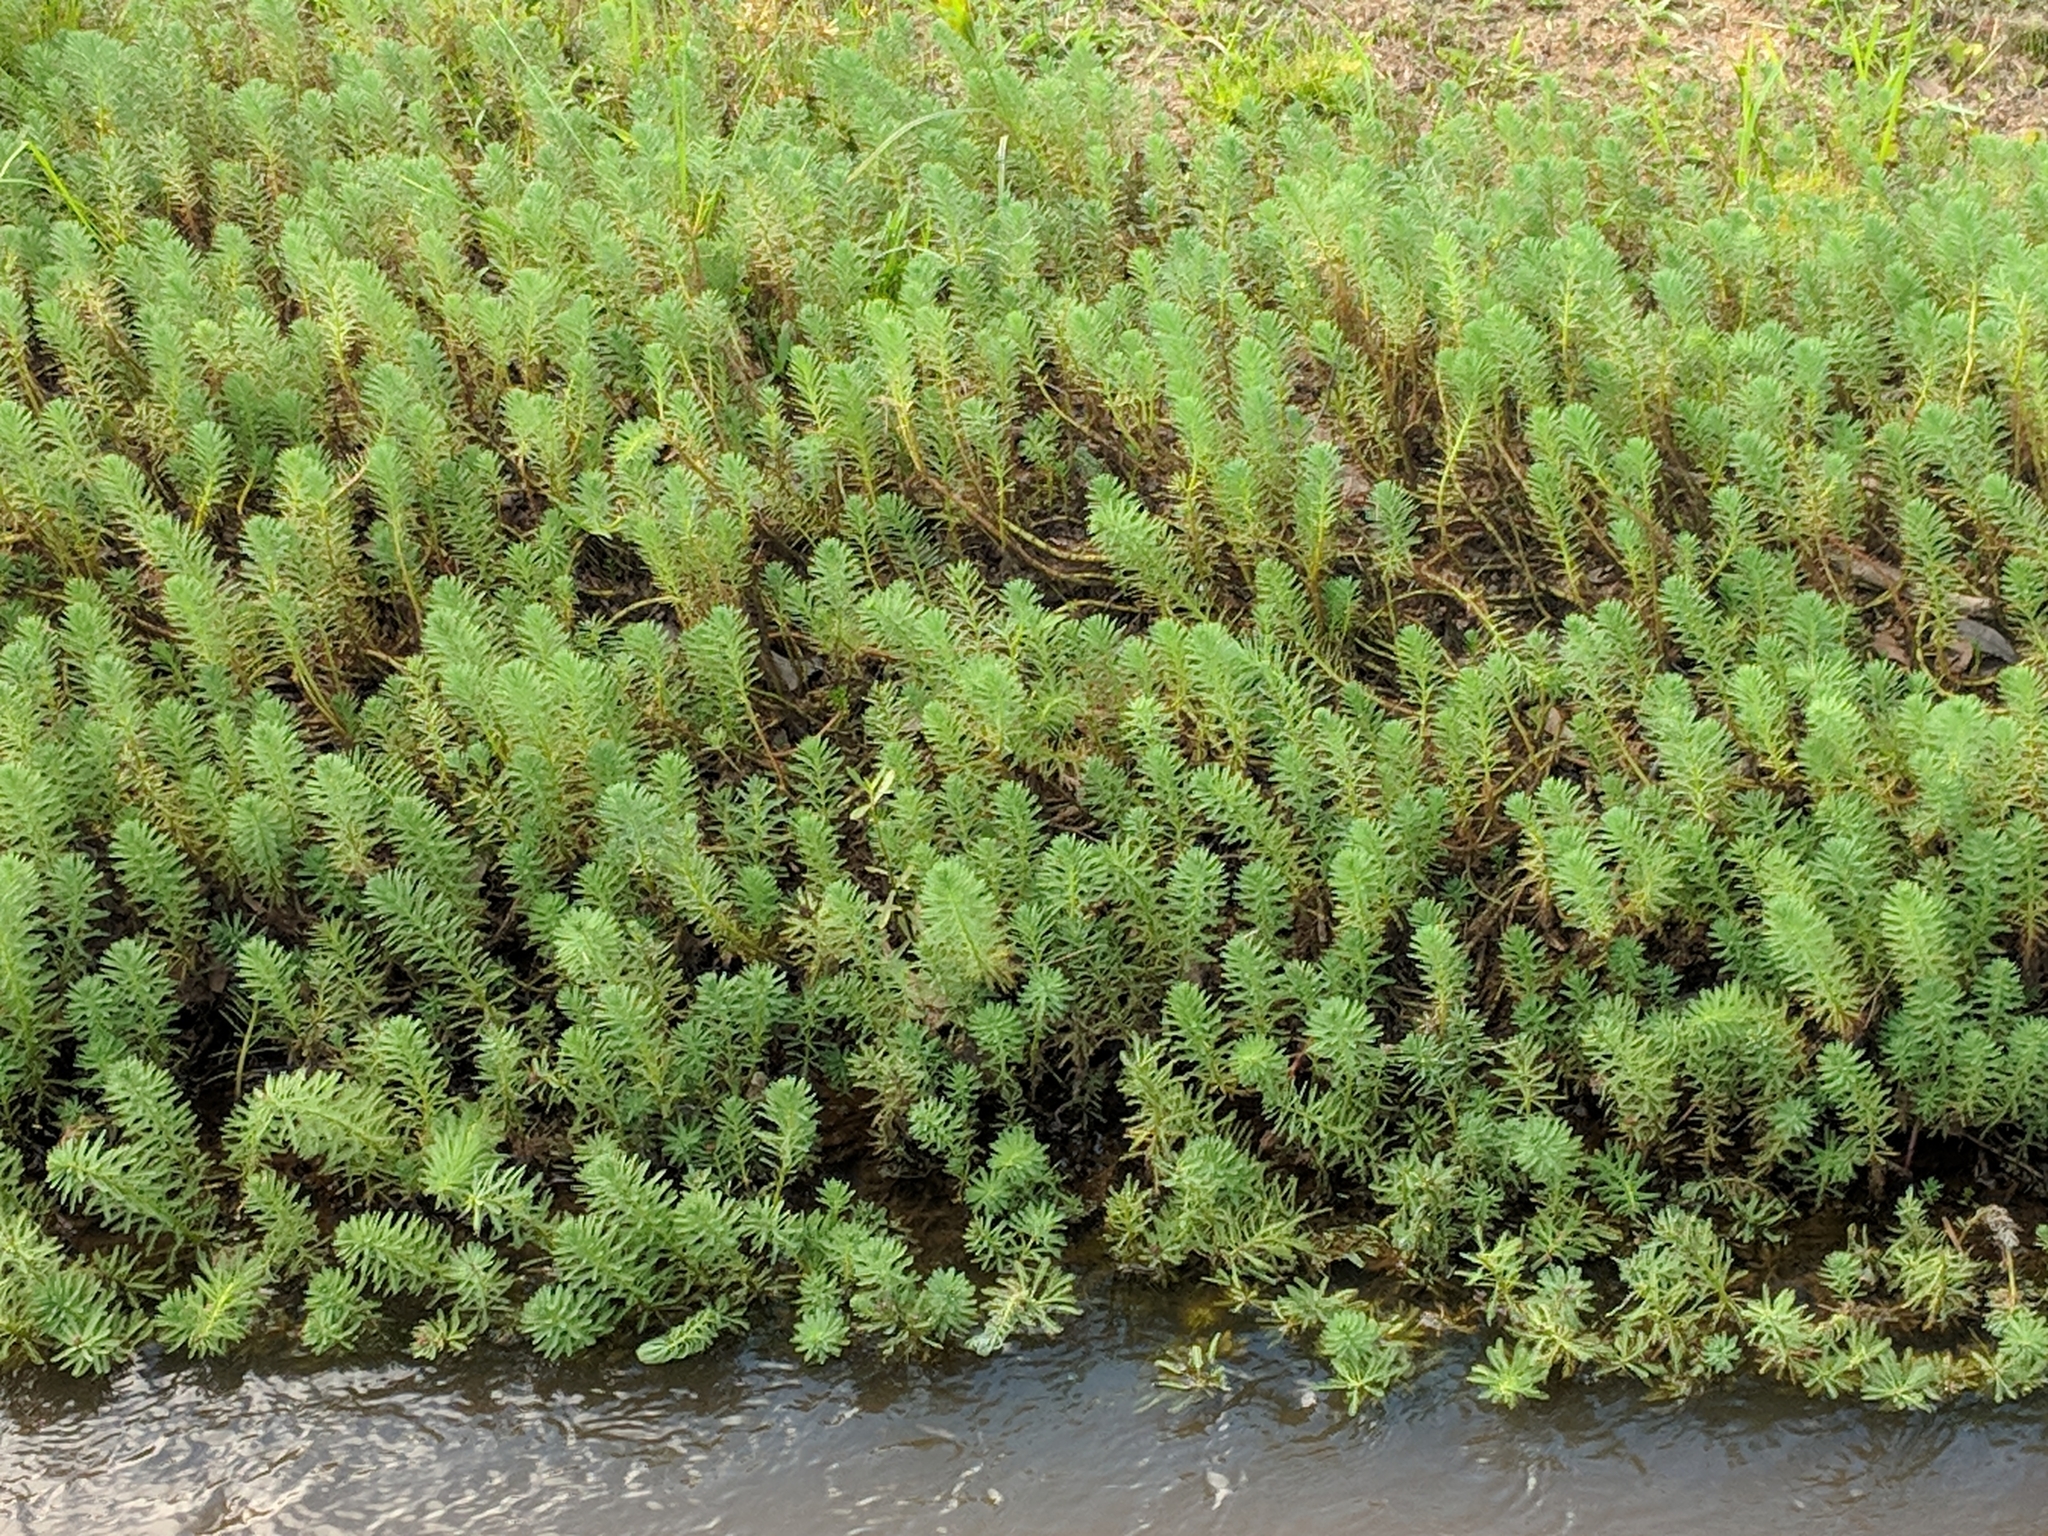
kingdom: Plantae
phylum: Tracheophyta
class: Magnoliopsida
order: Saxifragales
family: Haloragaceae
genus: Myriophyllum
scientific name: Myriophyllum aquaticum
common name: Parrot's feather
